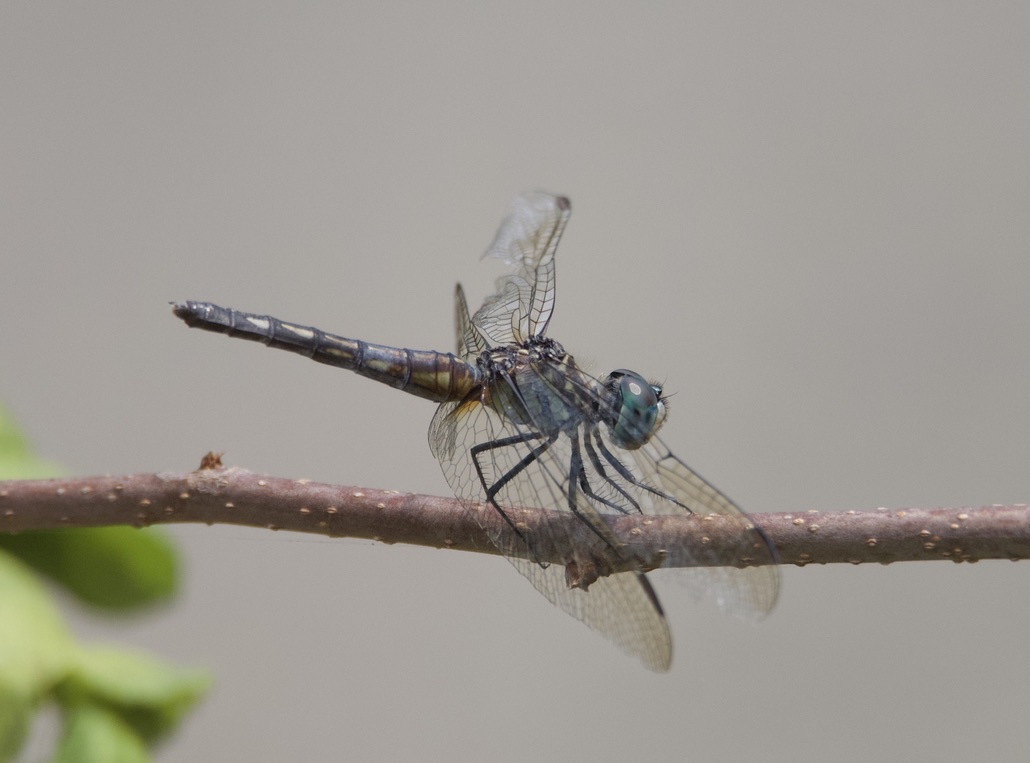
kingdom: Animalia
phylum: Arthropoda
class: Insecta
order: Odonata
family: Libellulidae
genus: Pachydiplax
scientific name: Pachydiplax longipennis
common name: Blue dasher
